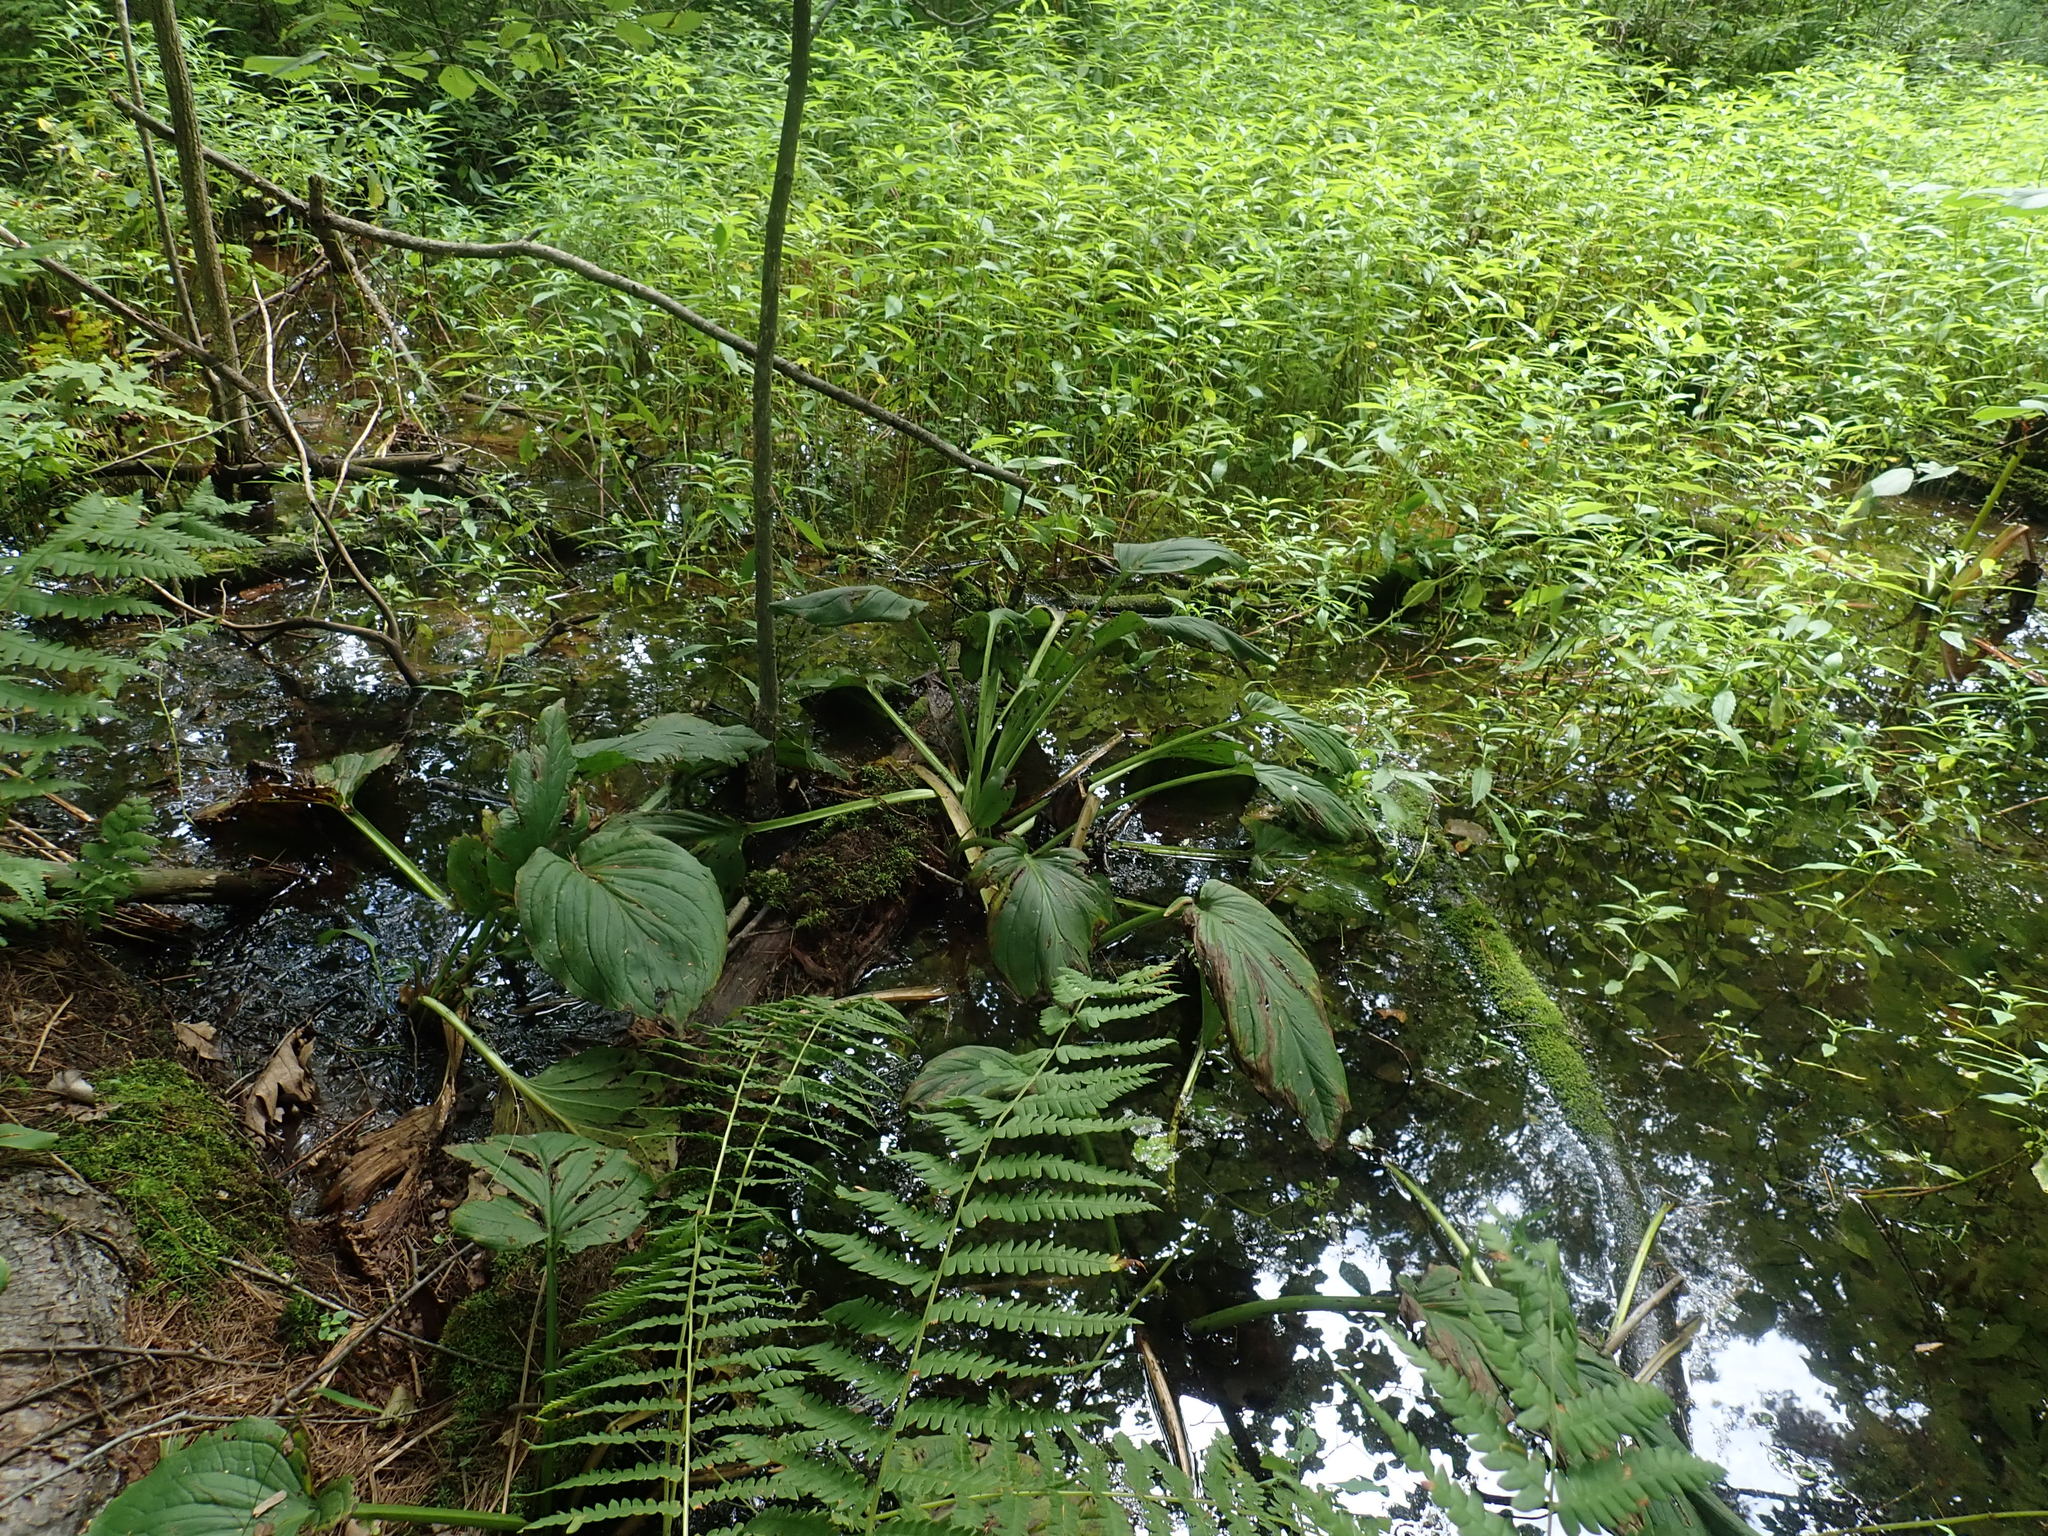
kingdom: Plantae
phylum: Tracheophyta
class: Liliopsida
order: Alismatales
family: Araceae
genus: Symplocarpus
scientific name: Symplocarpus foetidus
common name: Eastern skunk cabbage
